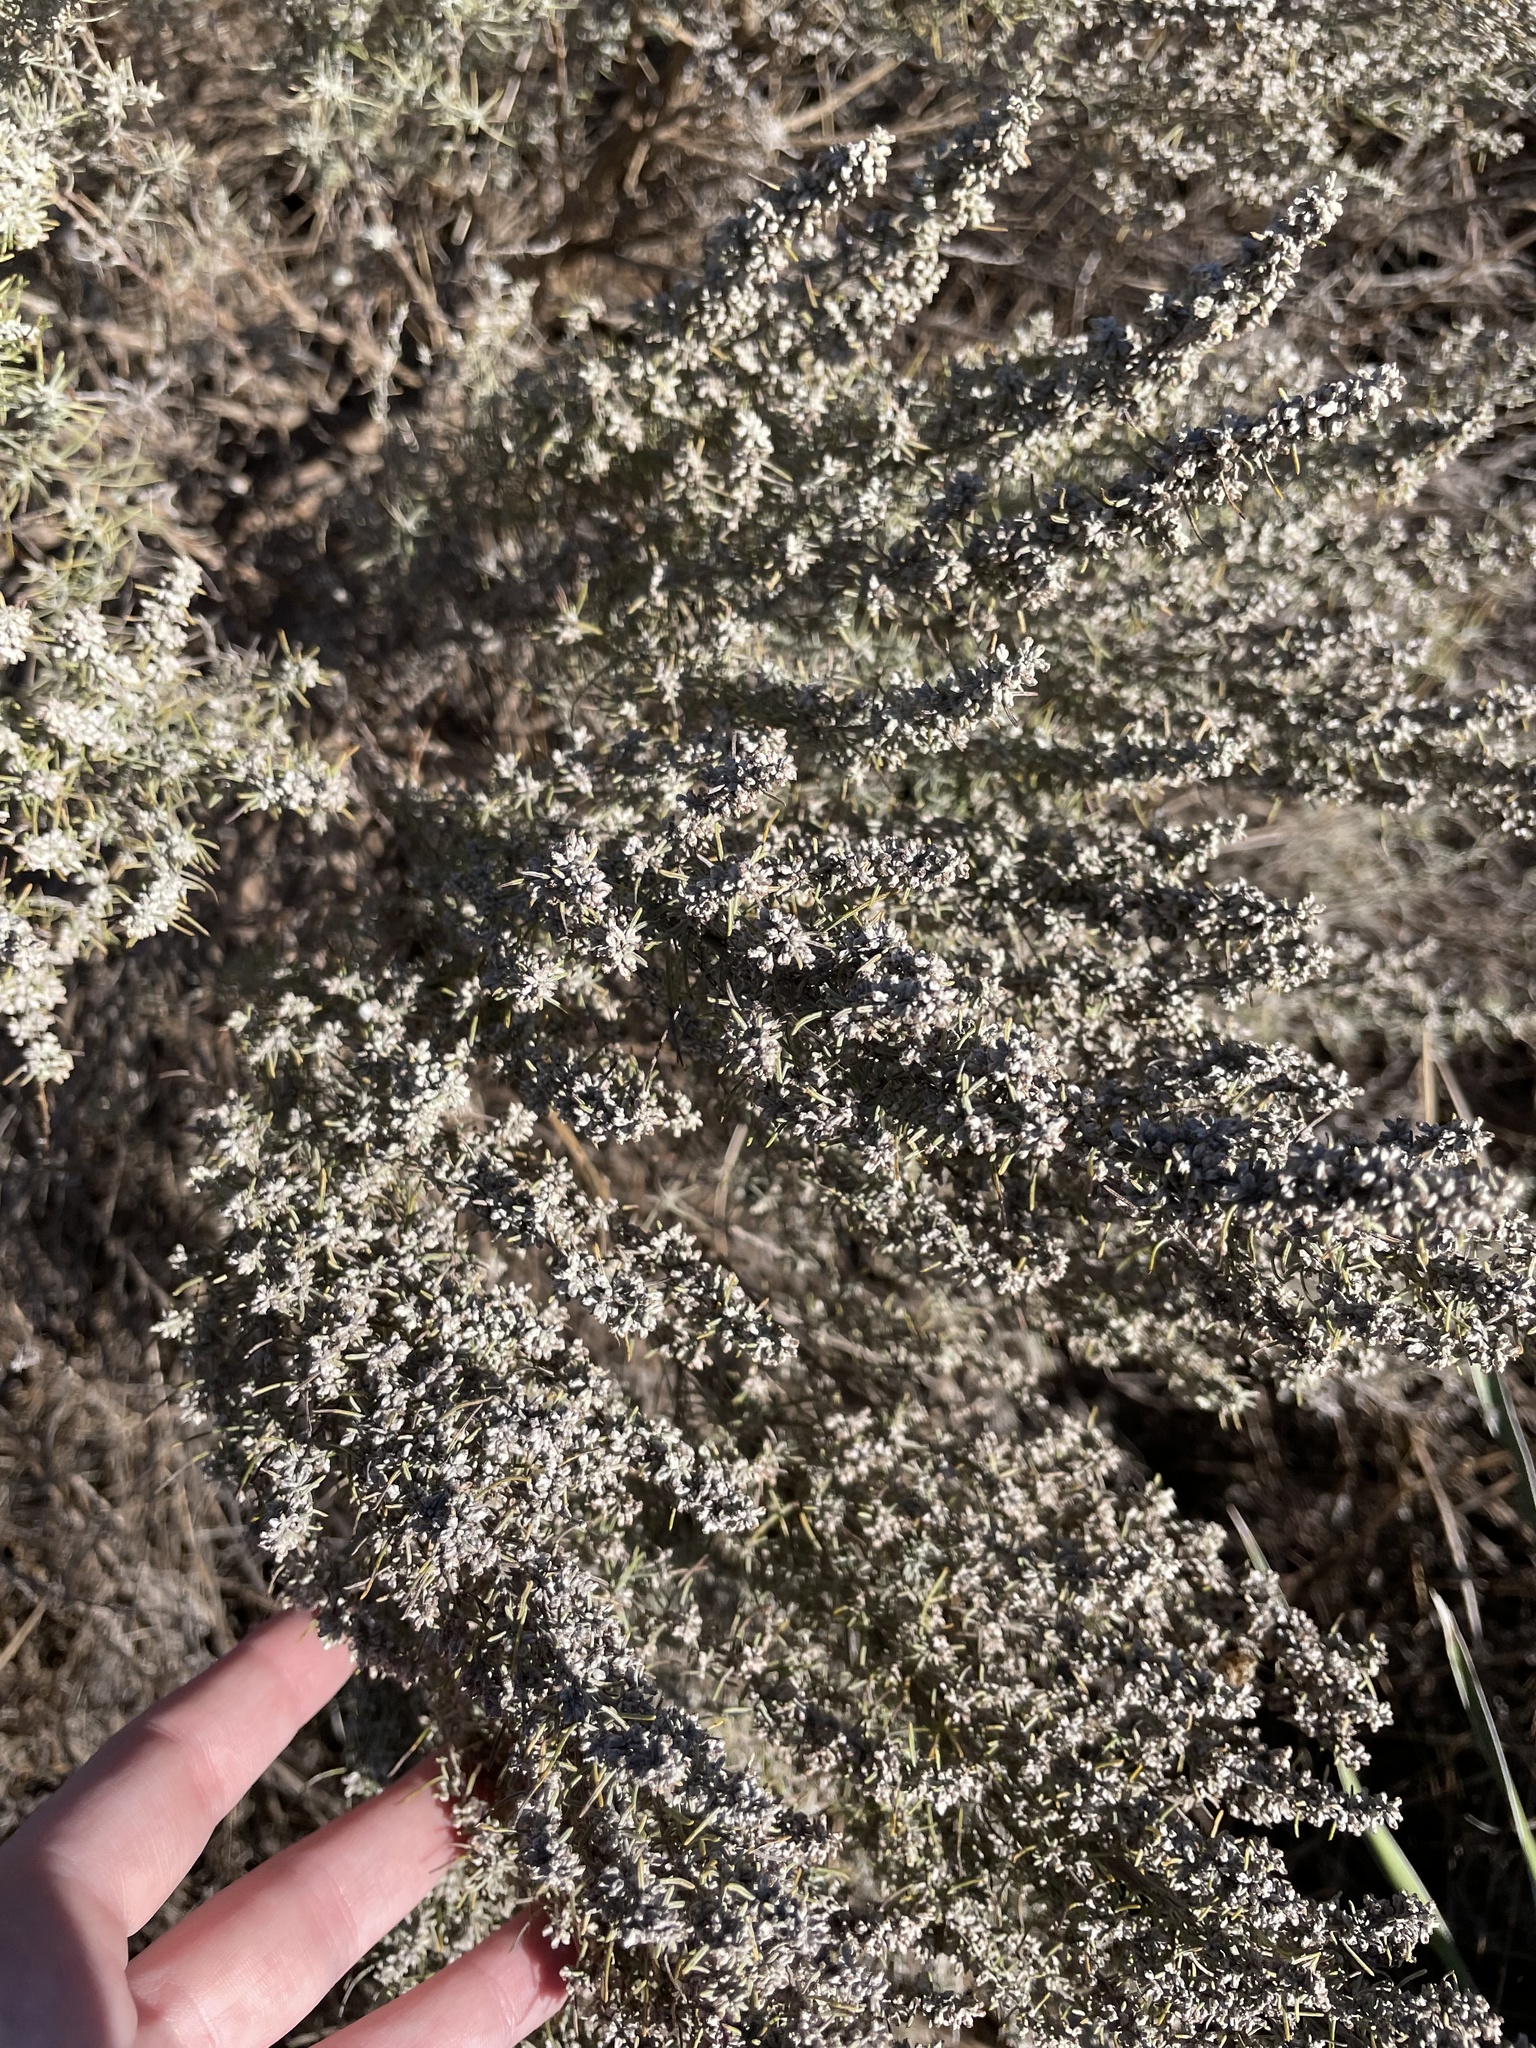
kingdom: Plantae
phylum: Tracheophyta
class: Magnoliopsida
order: Asterales
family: Asteraceae
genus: Artemisia
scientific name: Artemisia filifolia
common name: Sand-sage
